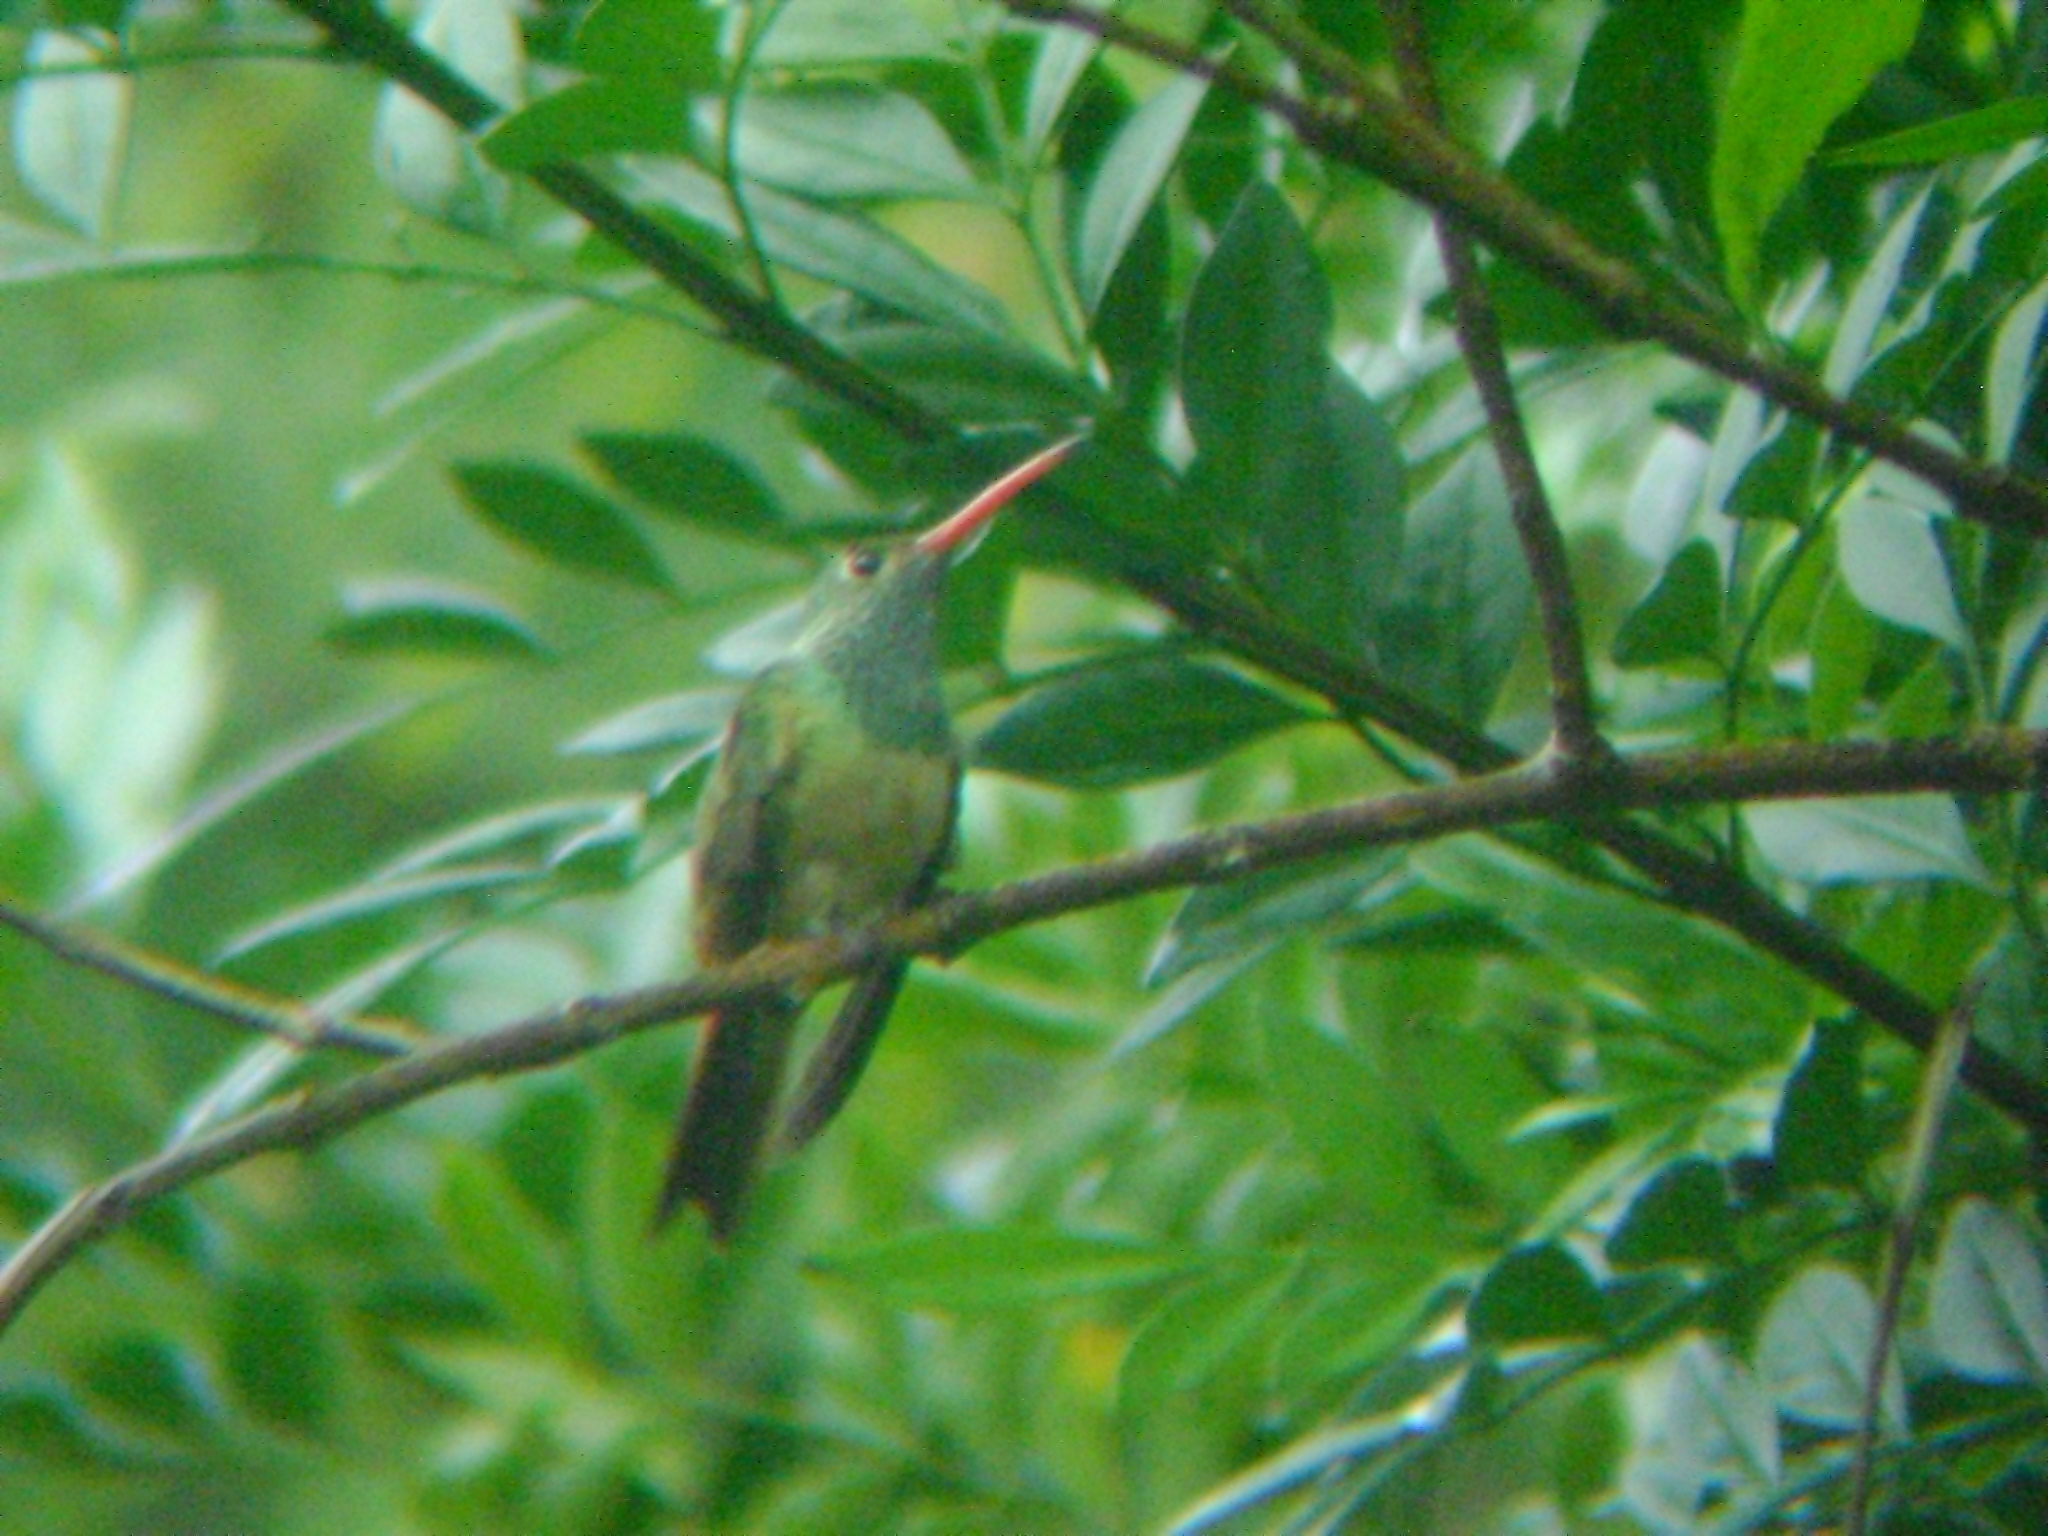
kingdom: Animalia
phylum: Chordata
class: Aves
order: Apodiformes
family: Trochilidae
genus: Amazilia
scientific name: Amazilia yucatanensis
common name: Buff-bellied hummingbird
